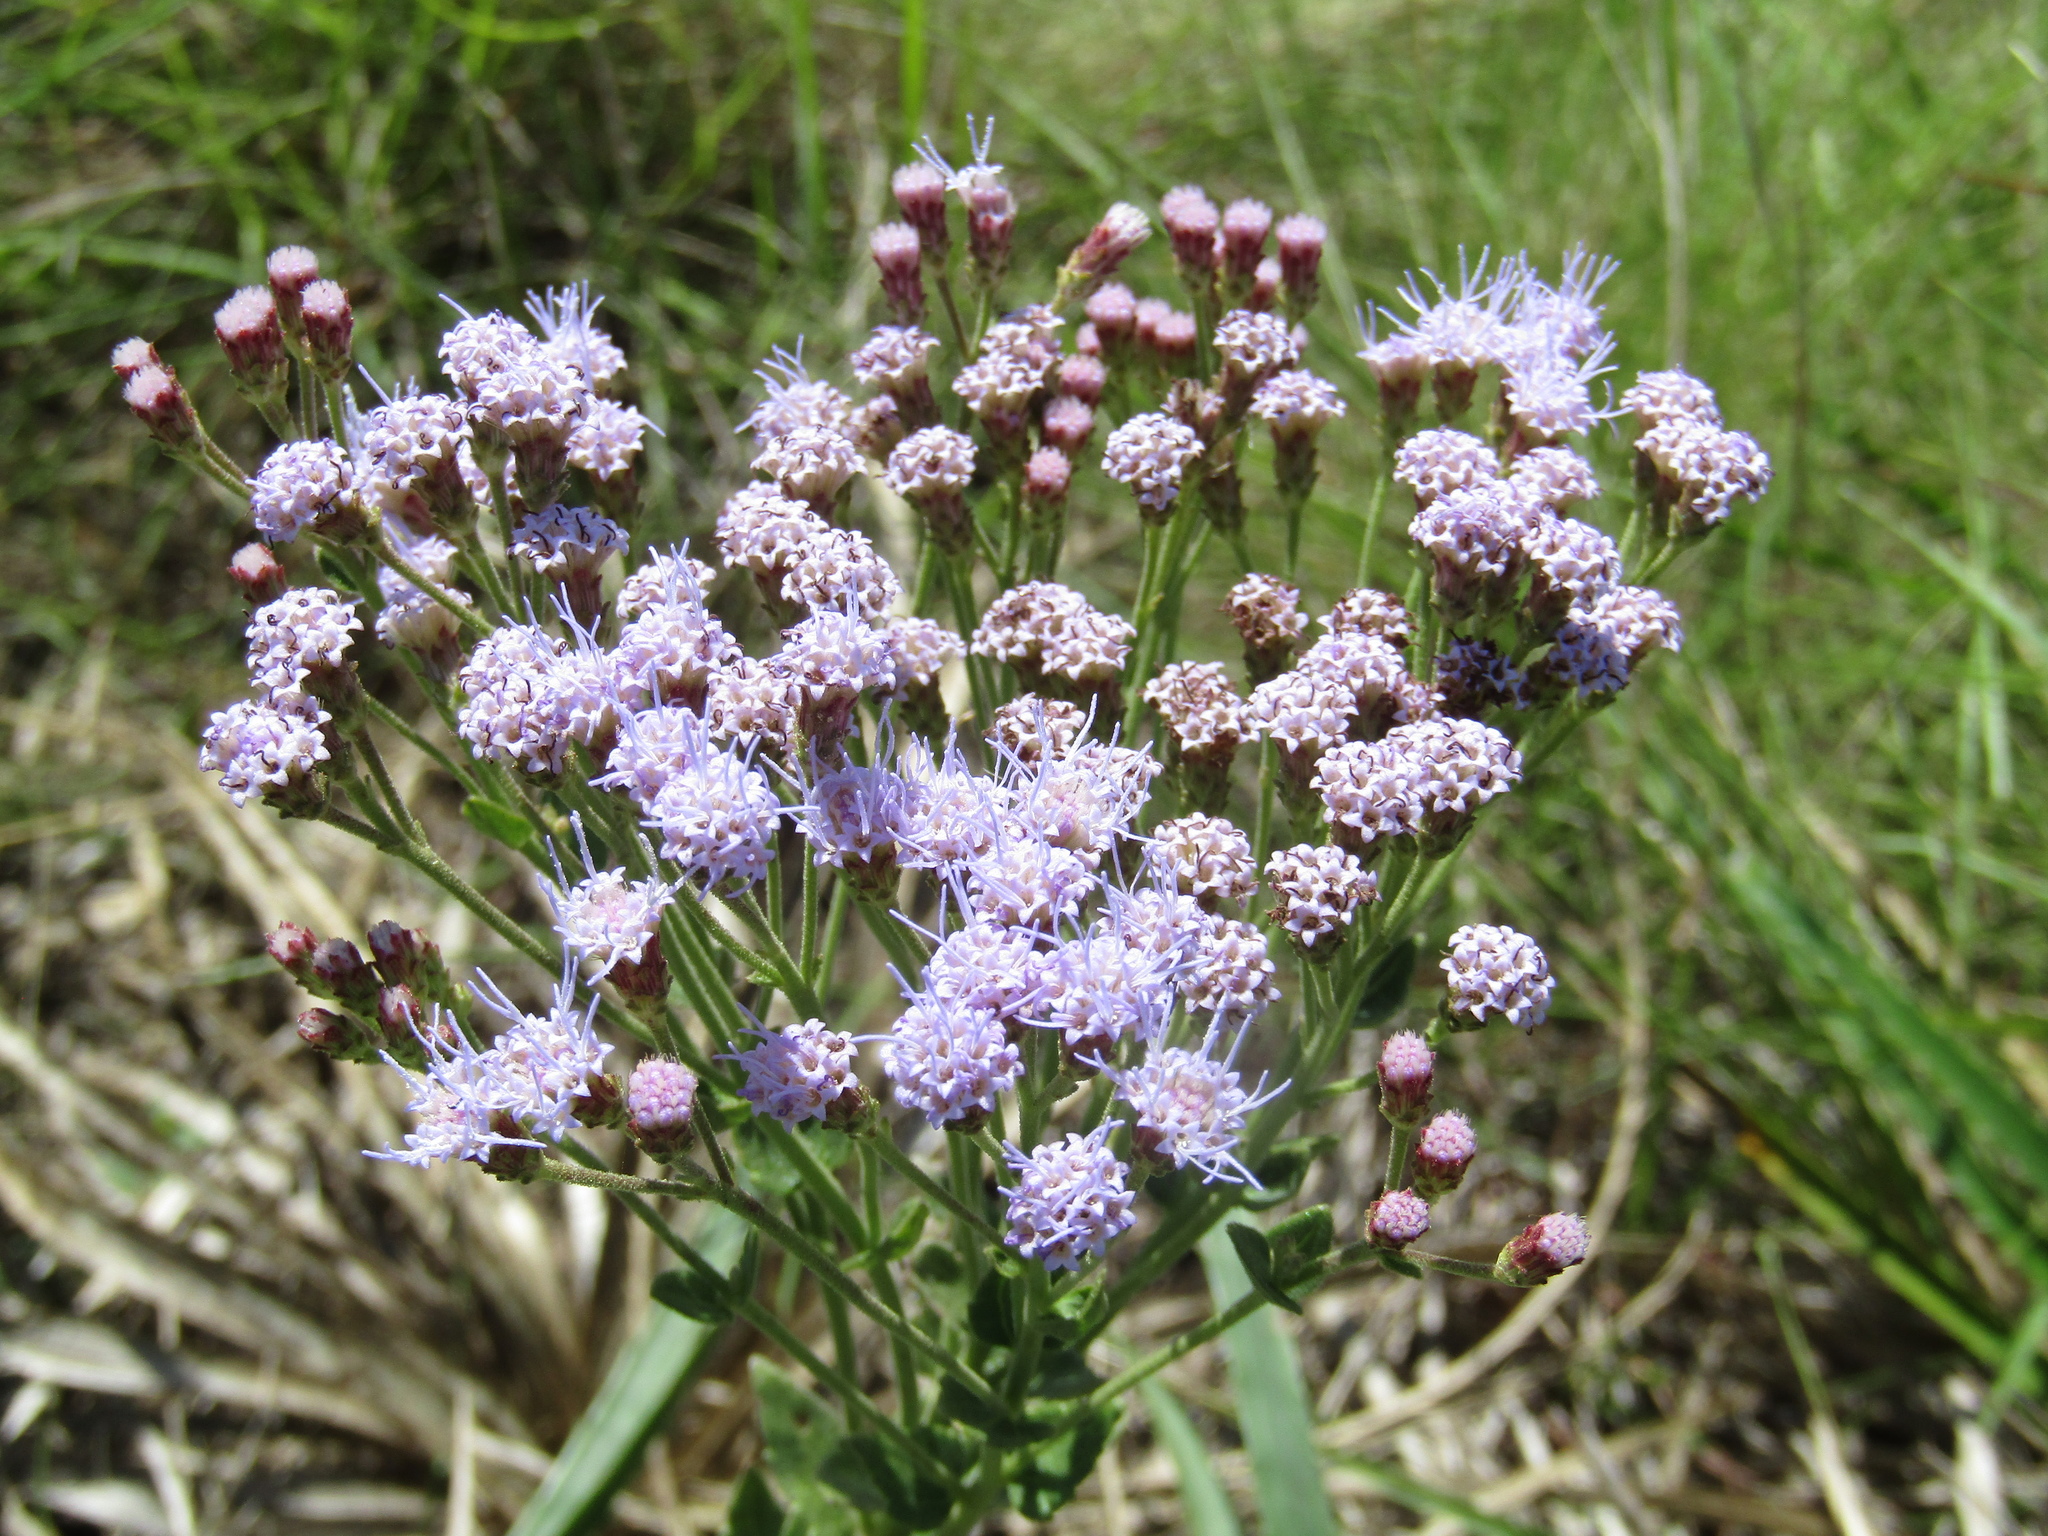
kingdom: Plantae
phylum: Tracheophyta
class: Magnoliopsida
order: Asterales
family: Asteraceae
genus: Chromolaena
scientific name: Chromolaena hirsuta
